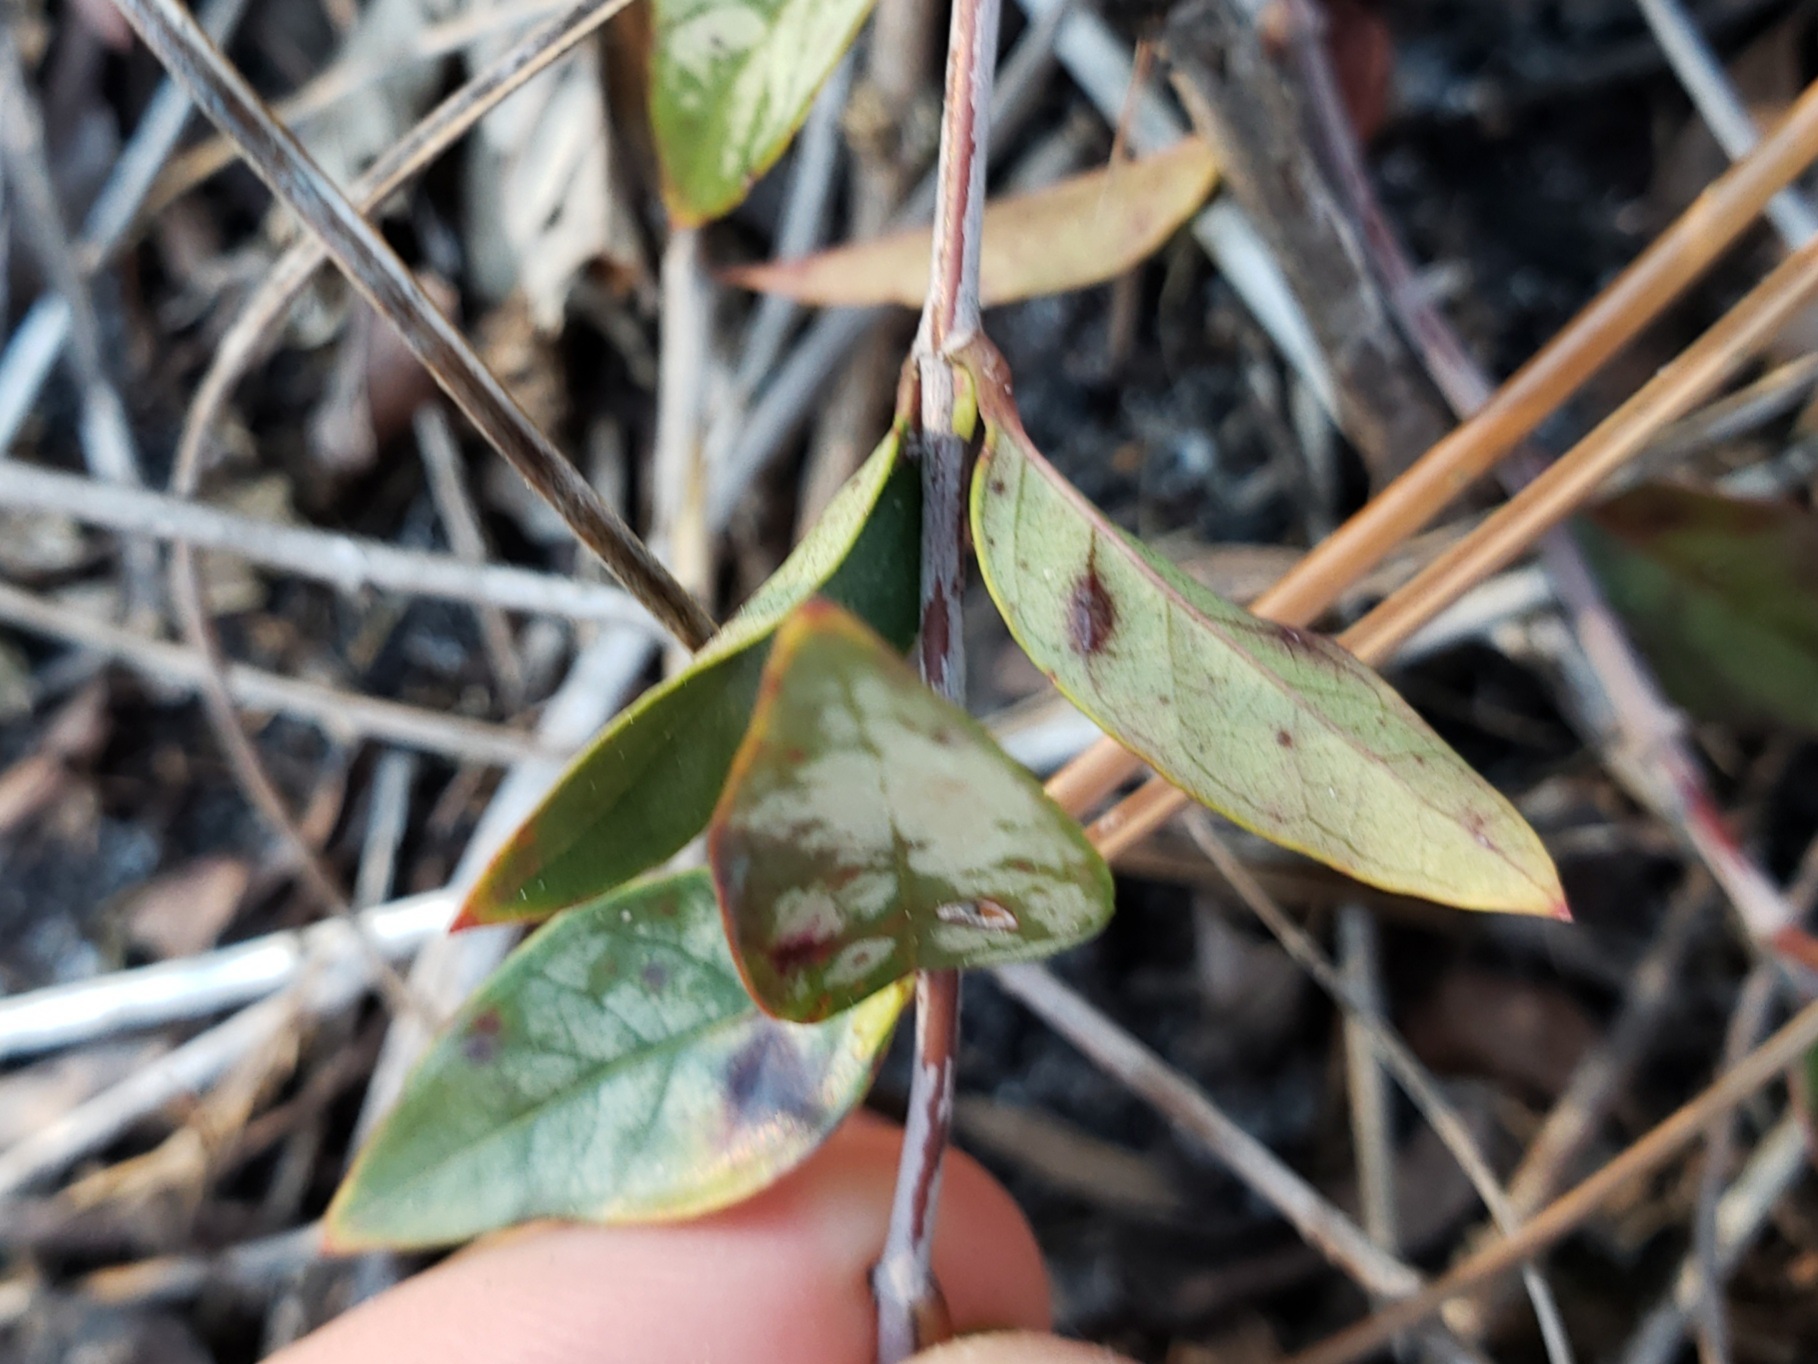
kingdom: Plantae
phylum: Tracheophyta
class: Magnoliopsida
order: Gentianales
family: Gelsemiaceae
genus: Gelsemium
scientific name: Gelsemium sempervirens
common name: Carolina-jasmine
